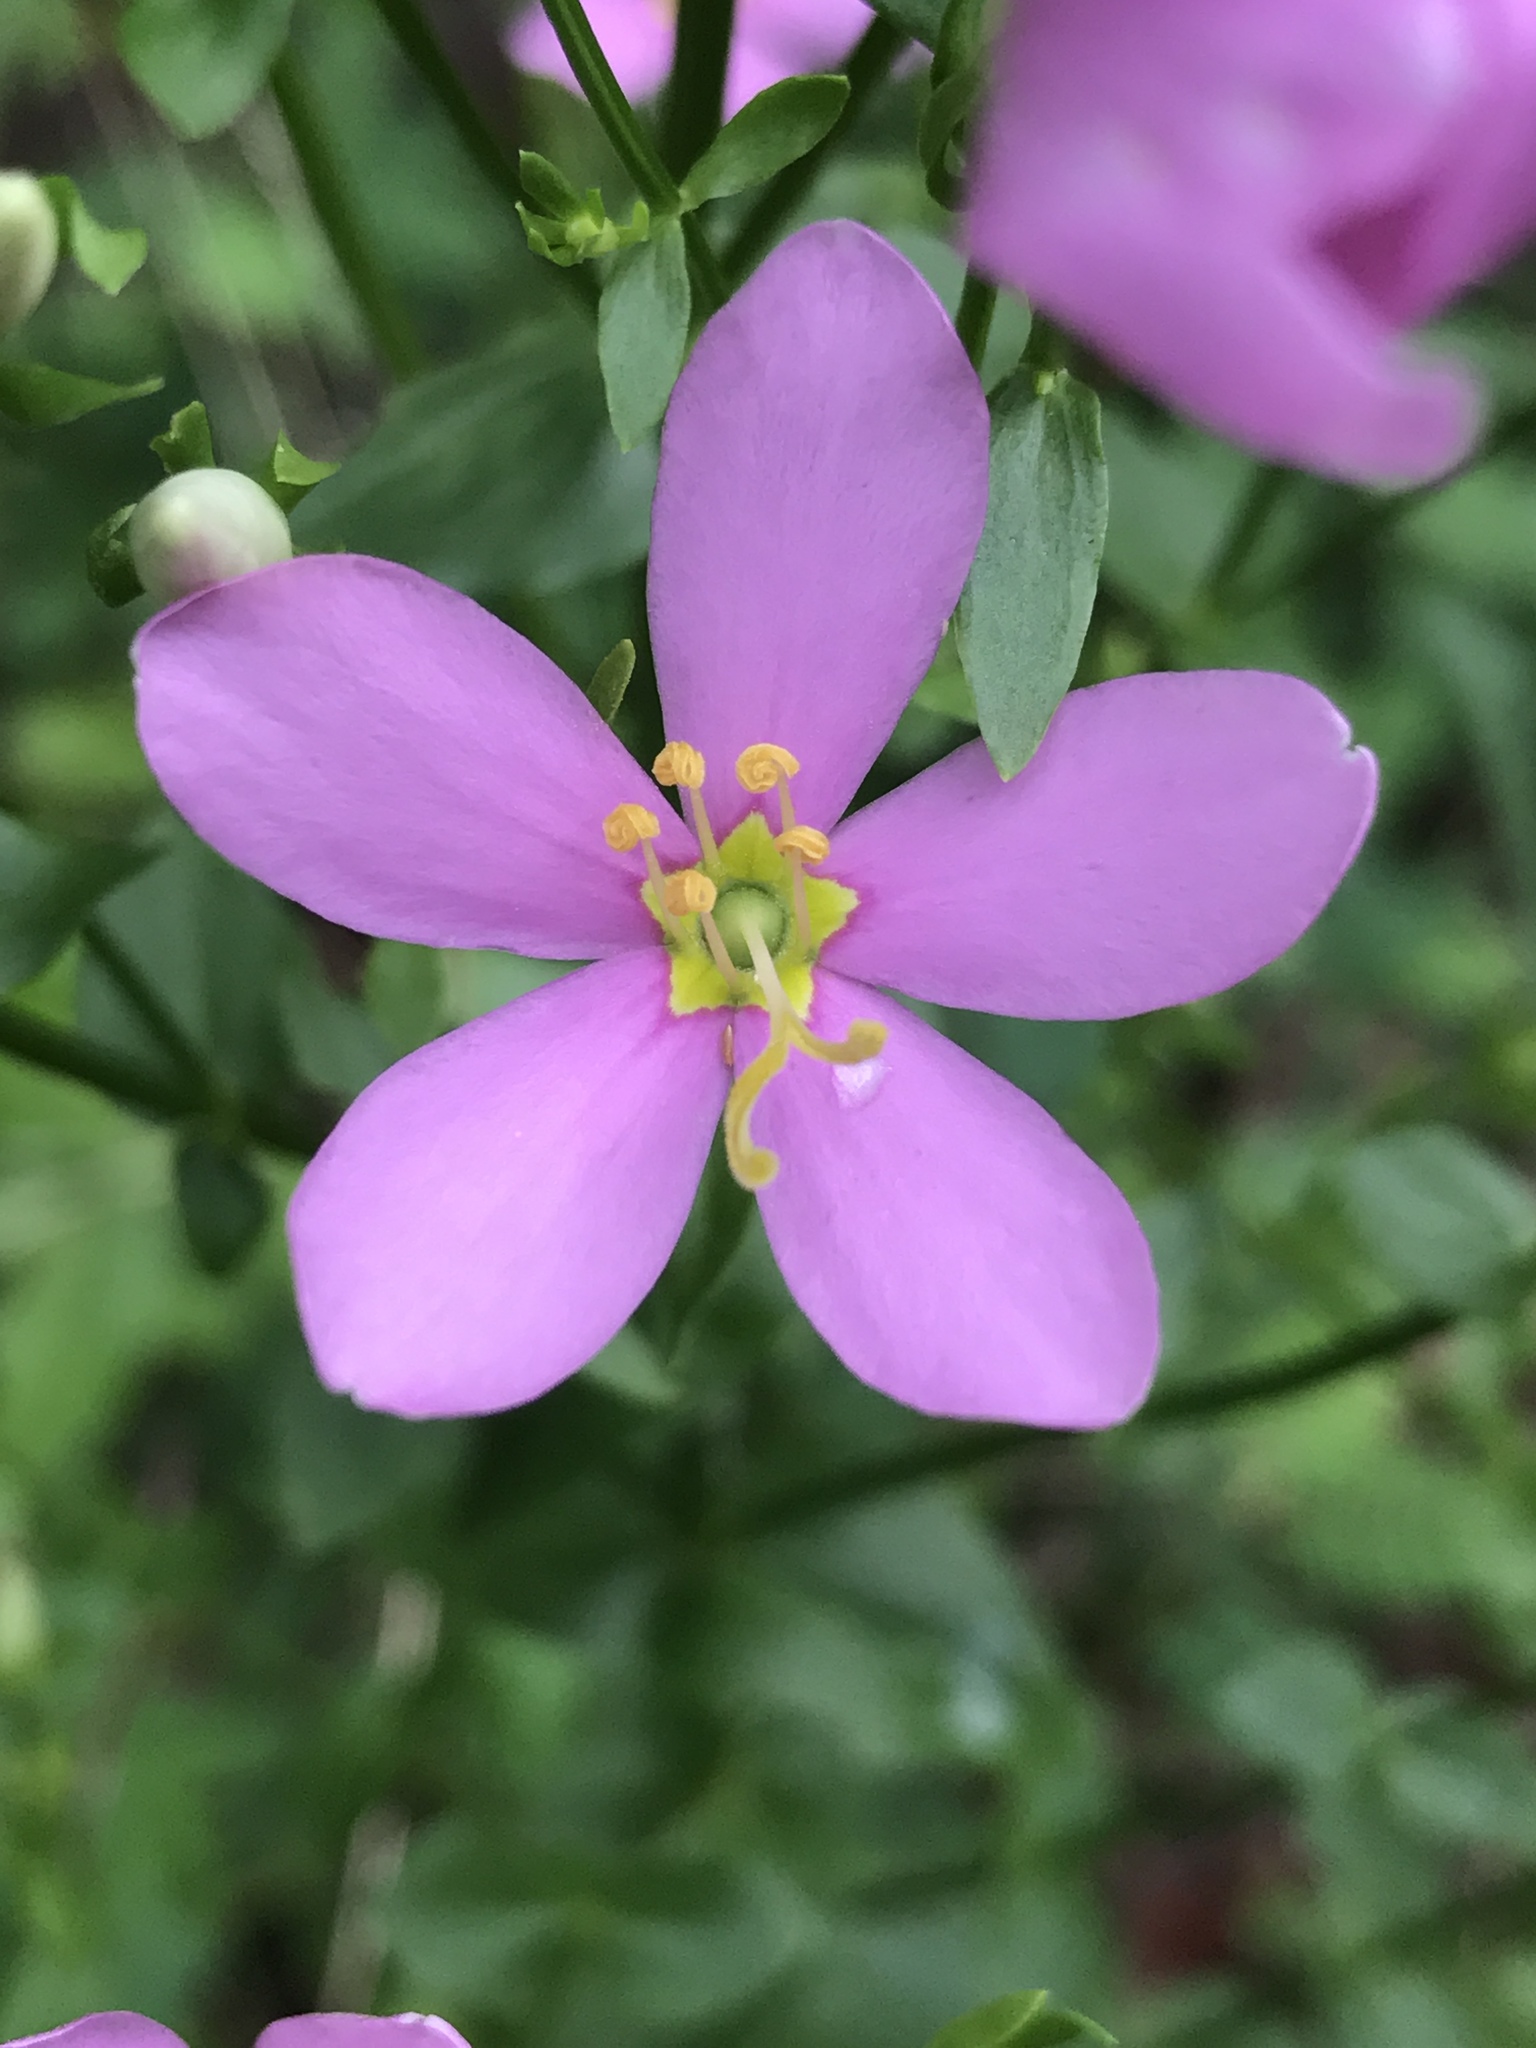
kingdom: Plantae
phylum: Tracheophyta
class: Magnoliopsida
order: Gentianales
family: Gentianaceae
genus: Sabatia
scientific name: Sabatia angularis
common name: Rose-pink
